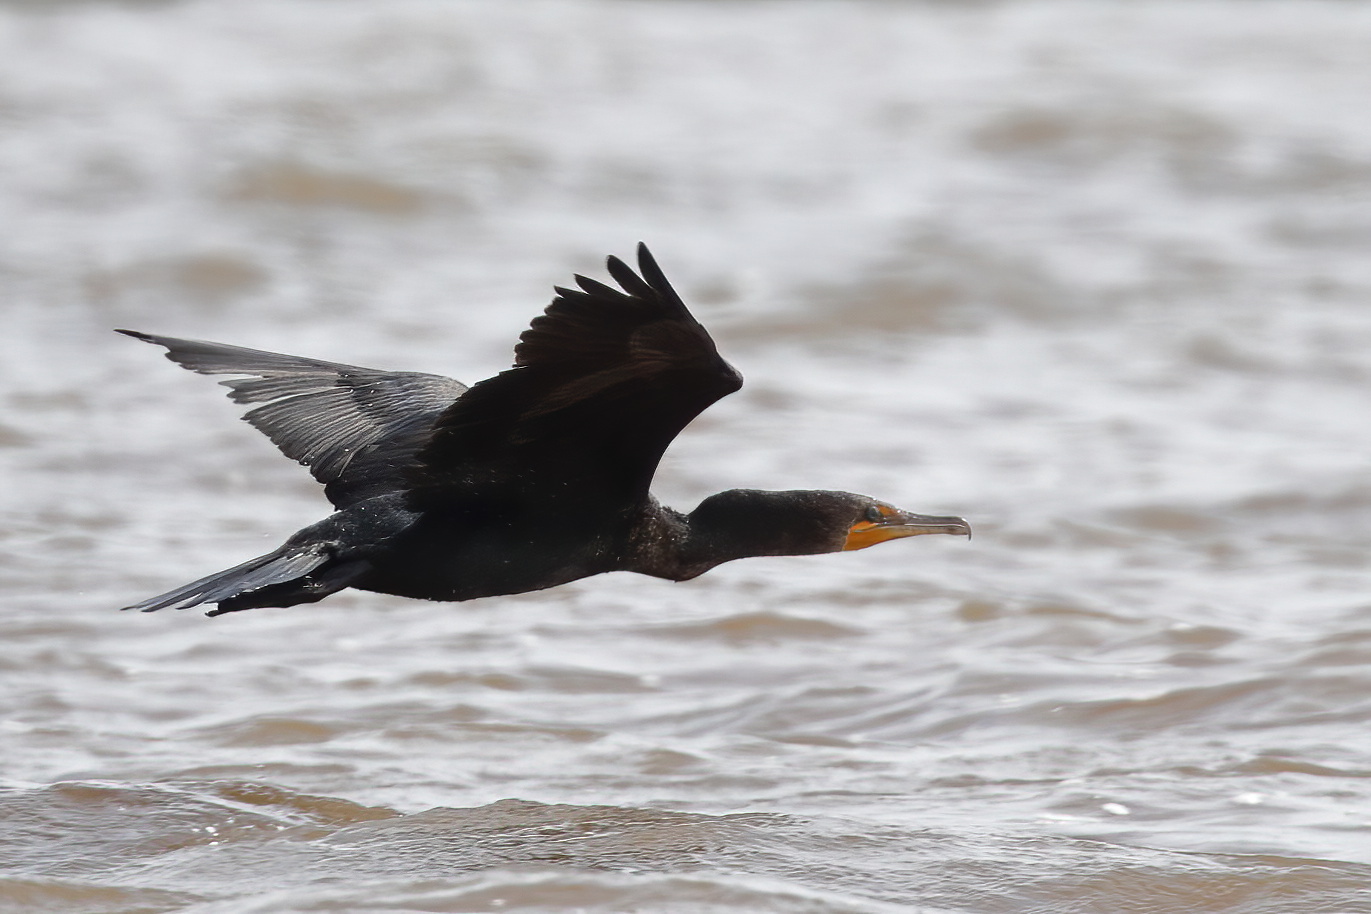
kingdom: Animalia
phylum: Chordata
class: Aves
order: Suliformes
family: Phalacrocoracidae
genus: Phalacrocorax
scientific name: Phalacrocorax auritus
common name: Double-crested cormorant
